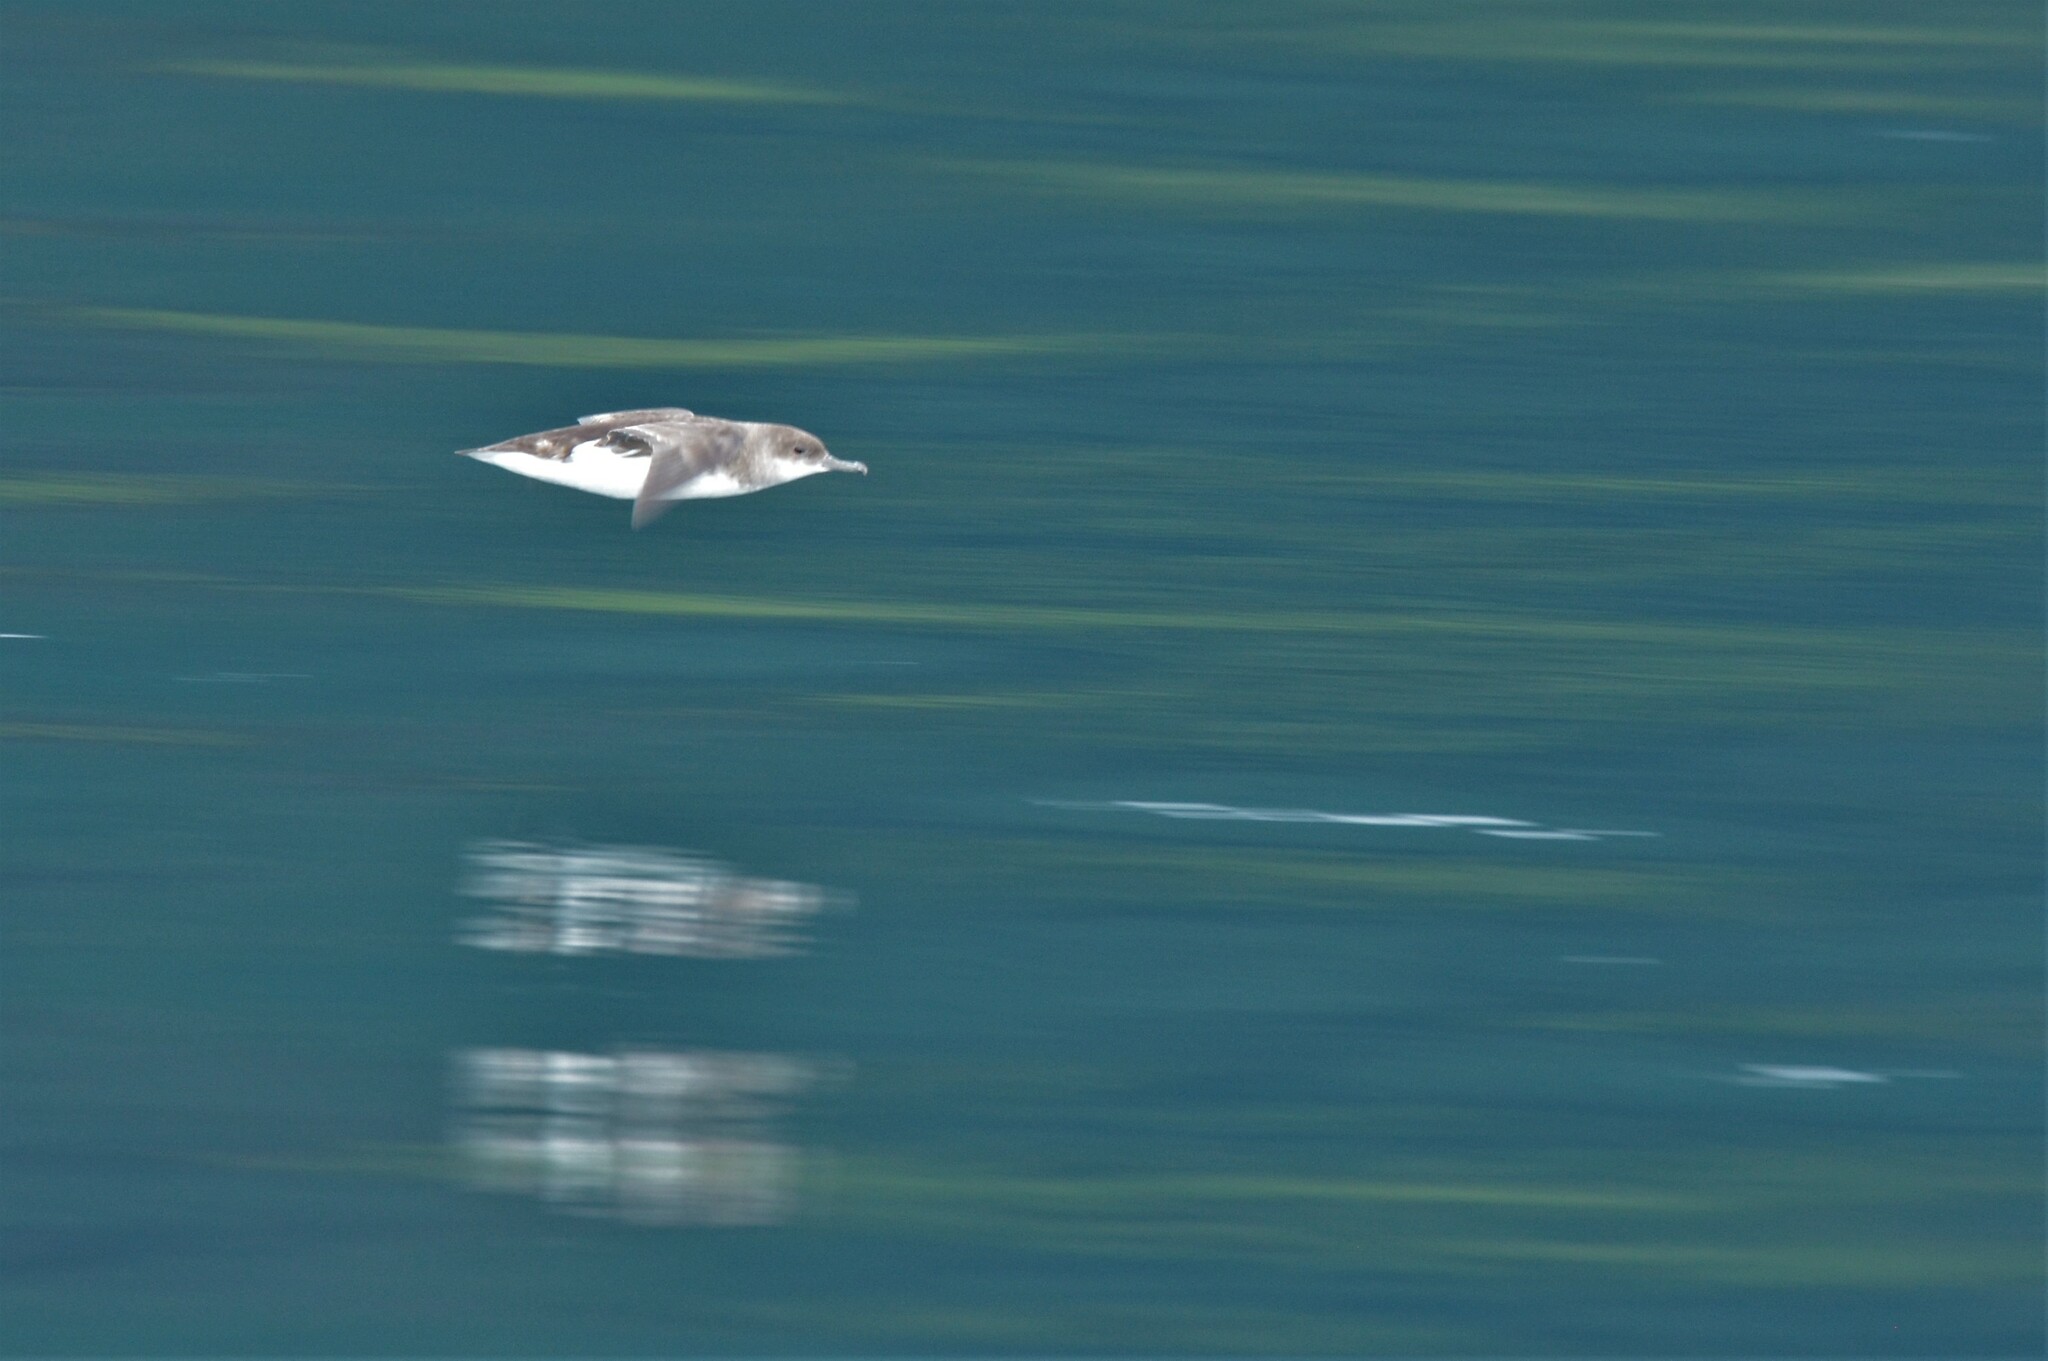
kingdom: Animalia
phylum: Chordata
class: Aves
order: Procellariiformes
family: Procellariidae
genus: Puffinus
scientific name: Puffinus gavia
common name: Fluttering shearwater
